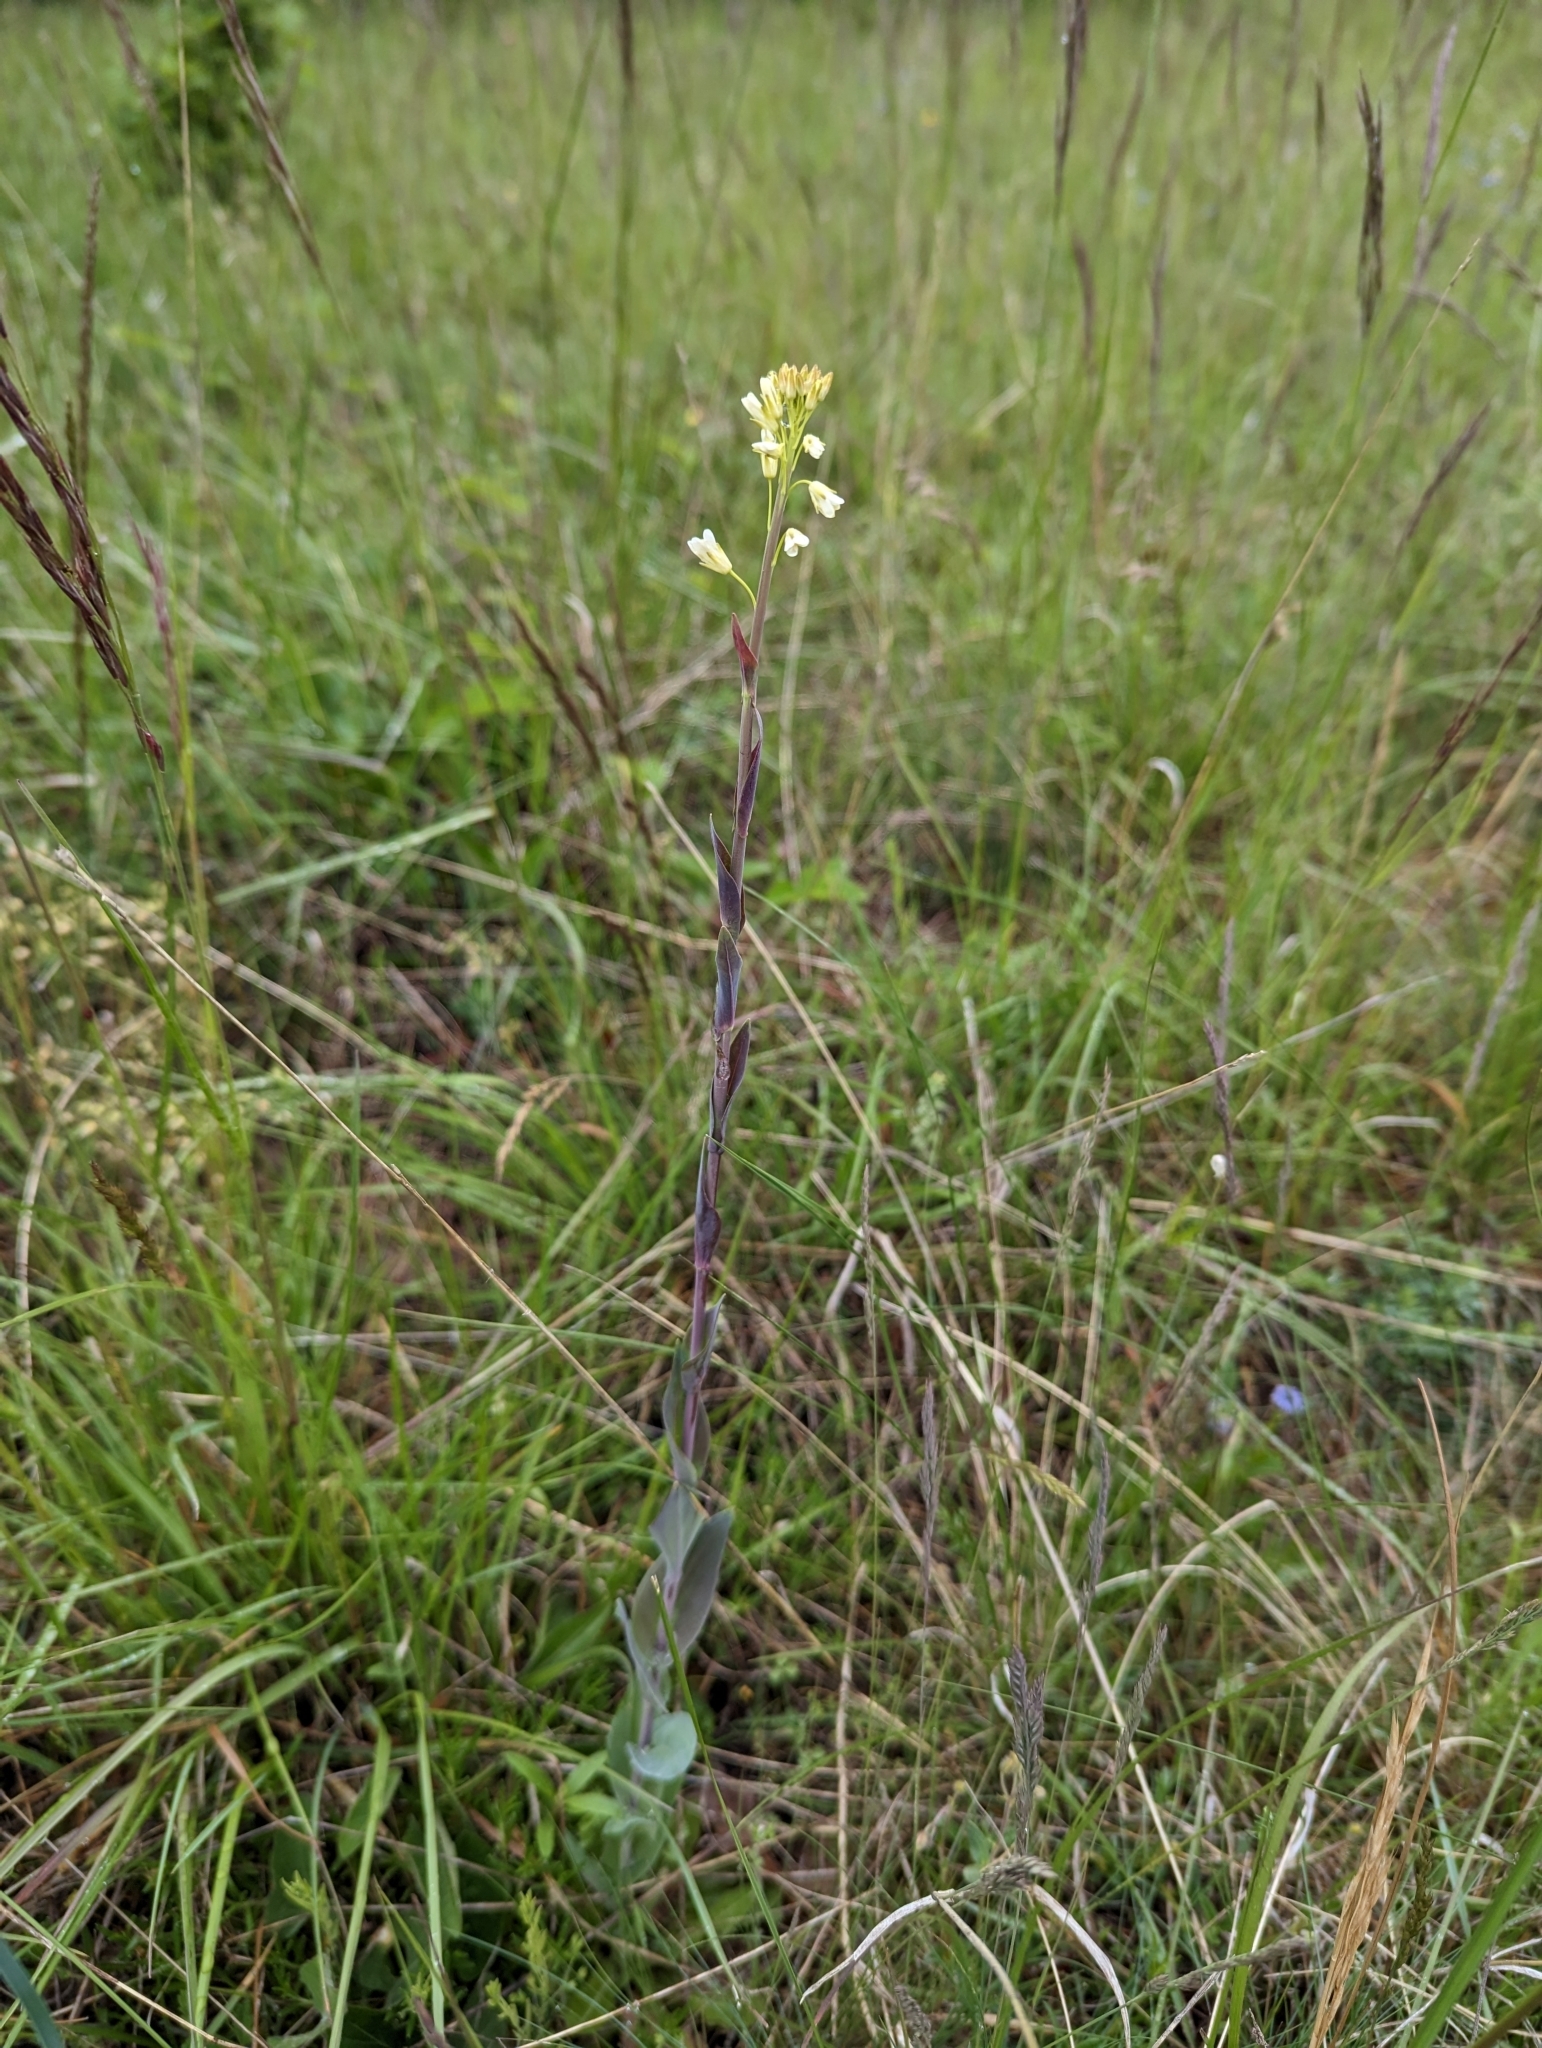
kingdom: Plantae
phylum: Tracheophyta
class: Magnoliopsida
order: Brassicales
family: Brassicaceae
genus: Turritis
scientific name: Turritis glabra
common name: Tower rockcress
